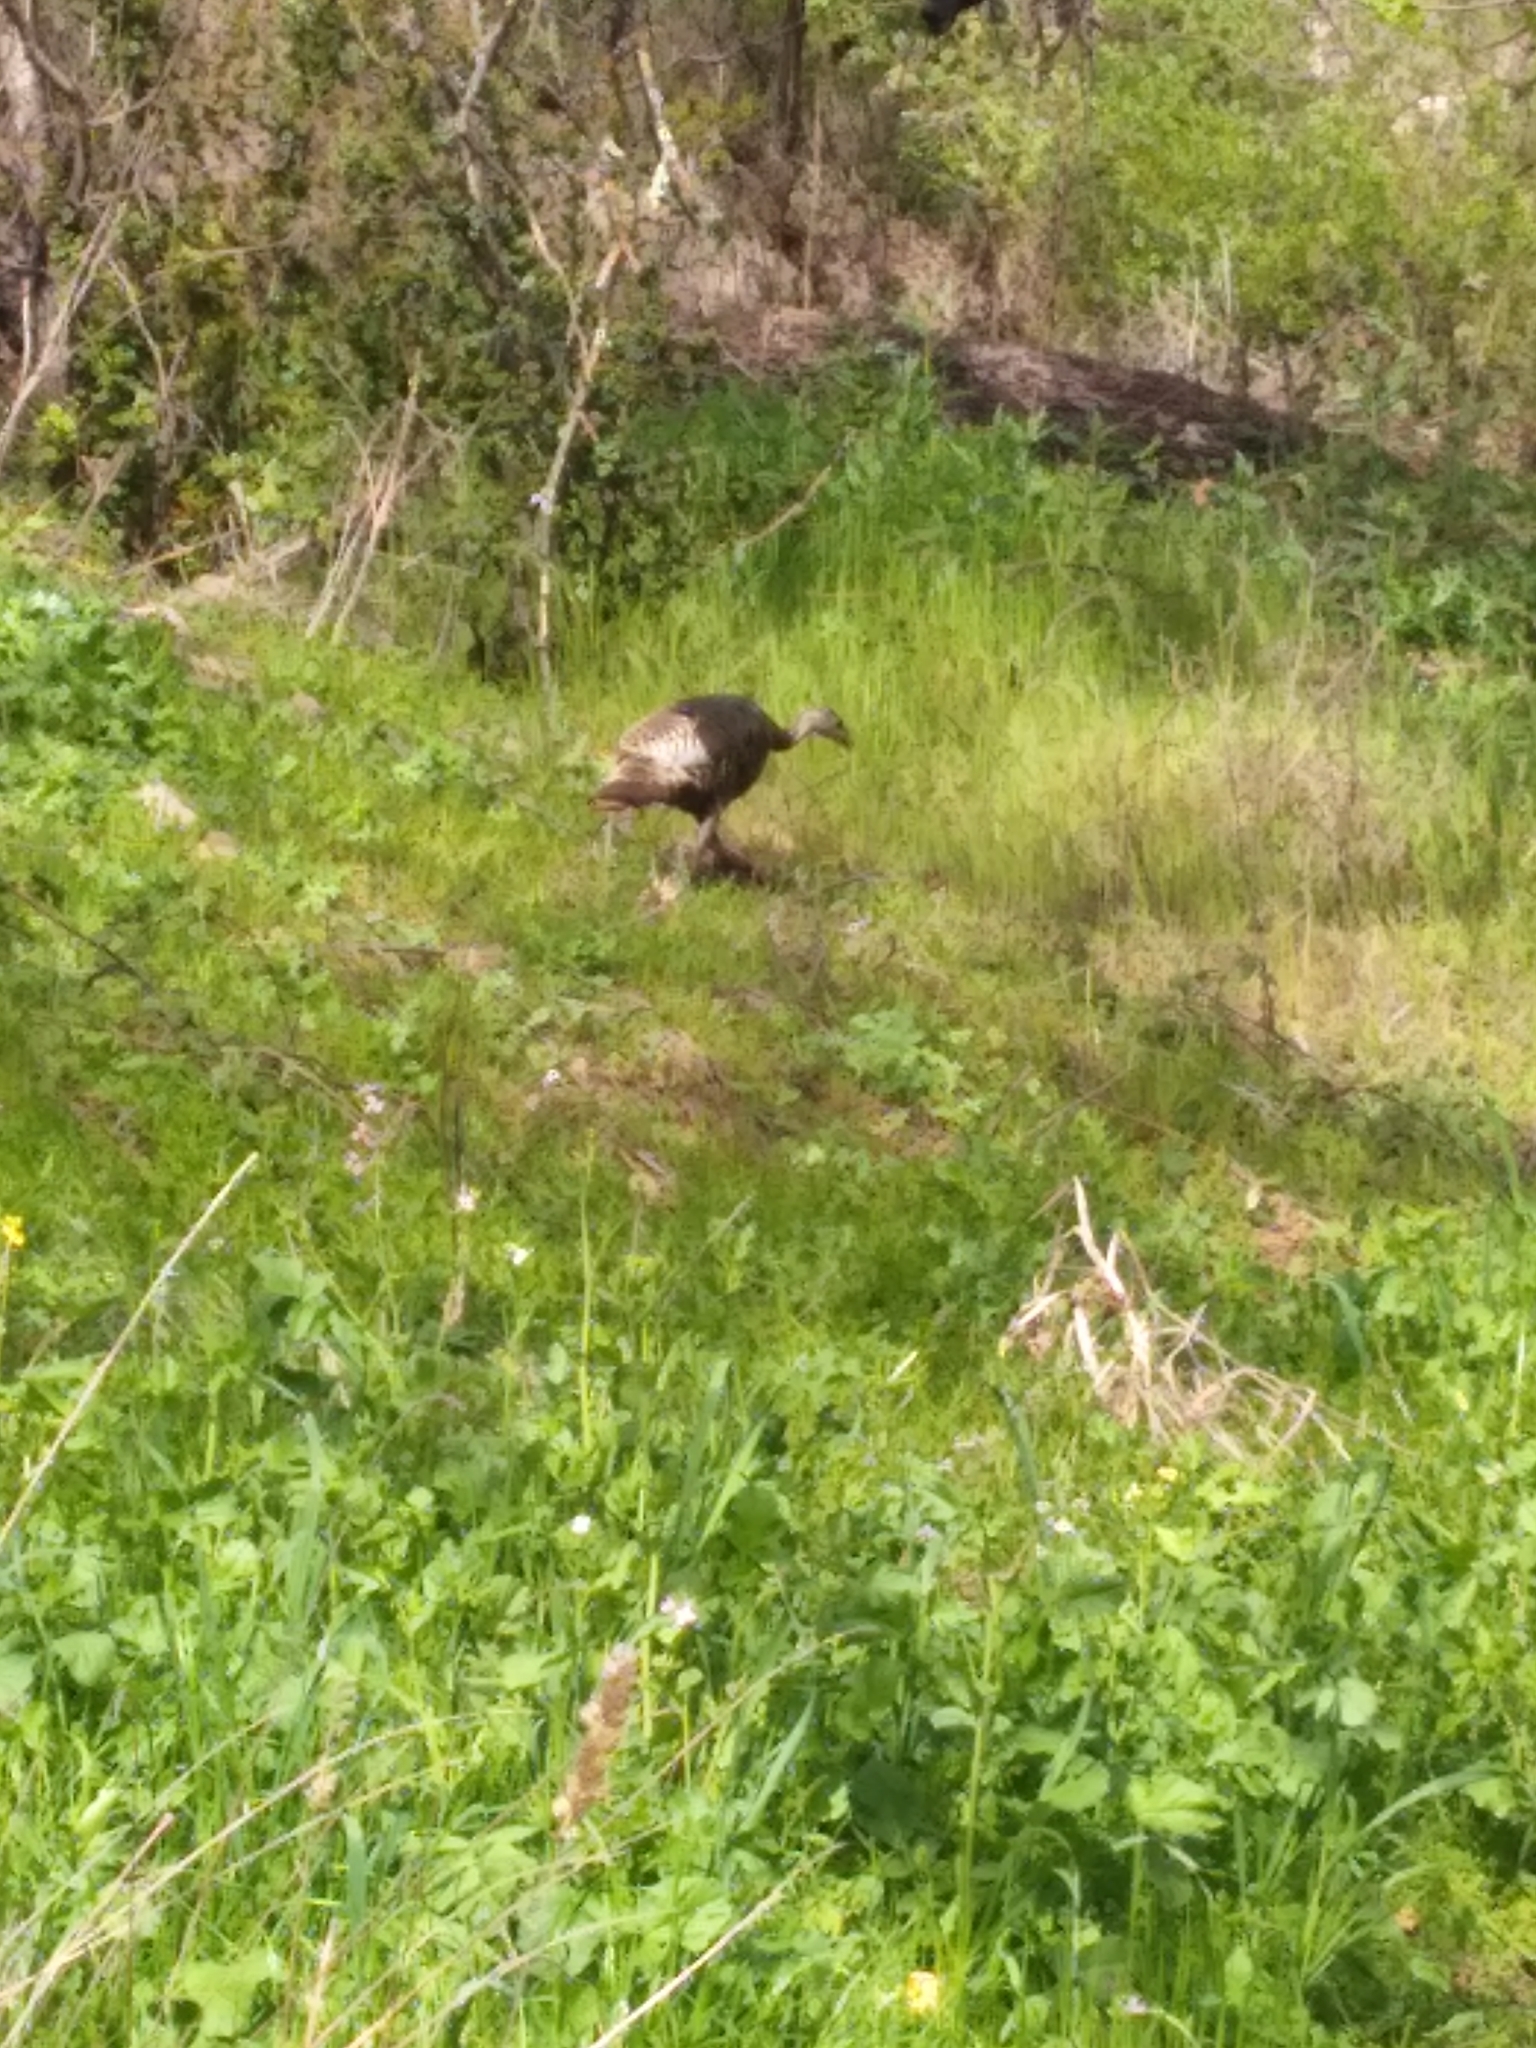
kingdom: Animalia
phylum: Chordata
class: Aves
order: Galliformes
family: Phasianidae
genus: Meleagris
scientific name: Meleagris gallopavo
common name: Wild turkey
